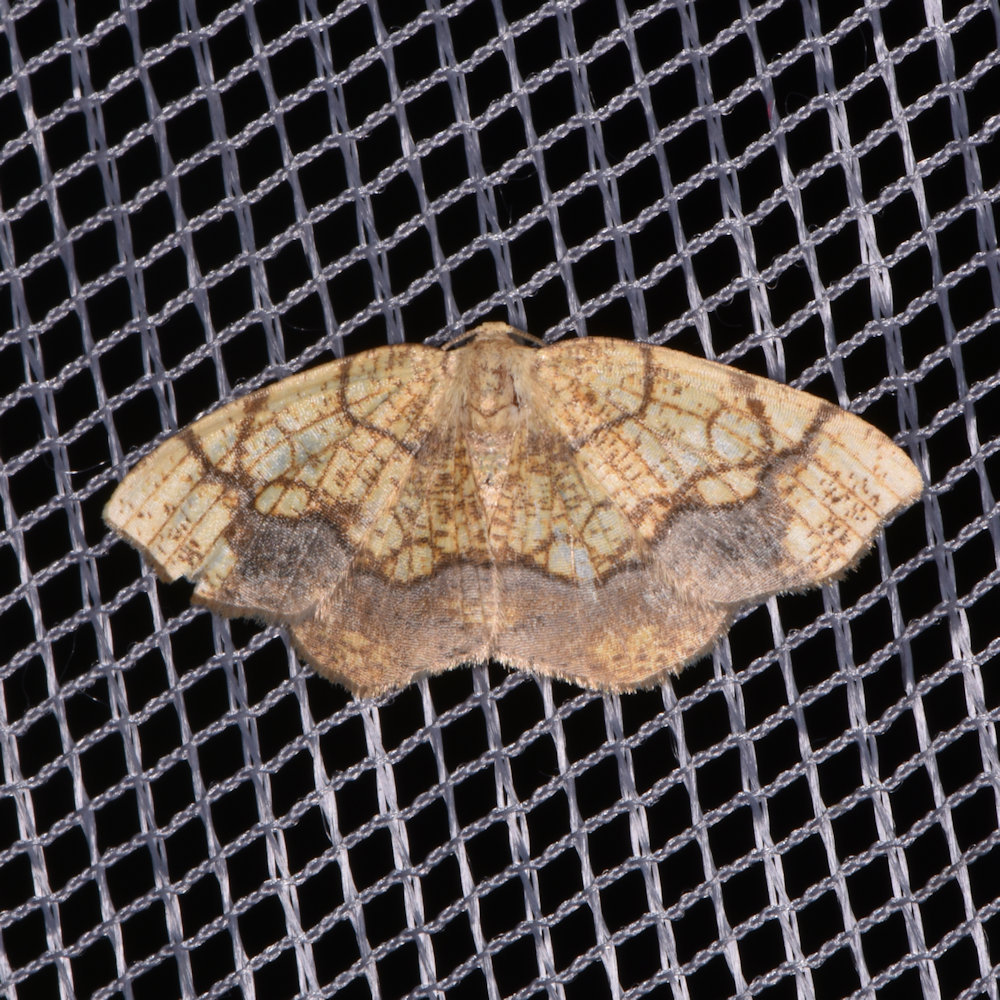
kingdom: Animalia
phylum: Arthropoda
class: Insecta
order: Lepidoptera
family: Geometridae
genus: Nematocampa
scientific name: Nematocampa resistaria
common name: Horned spanworm moth
